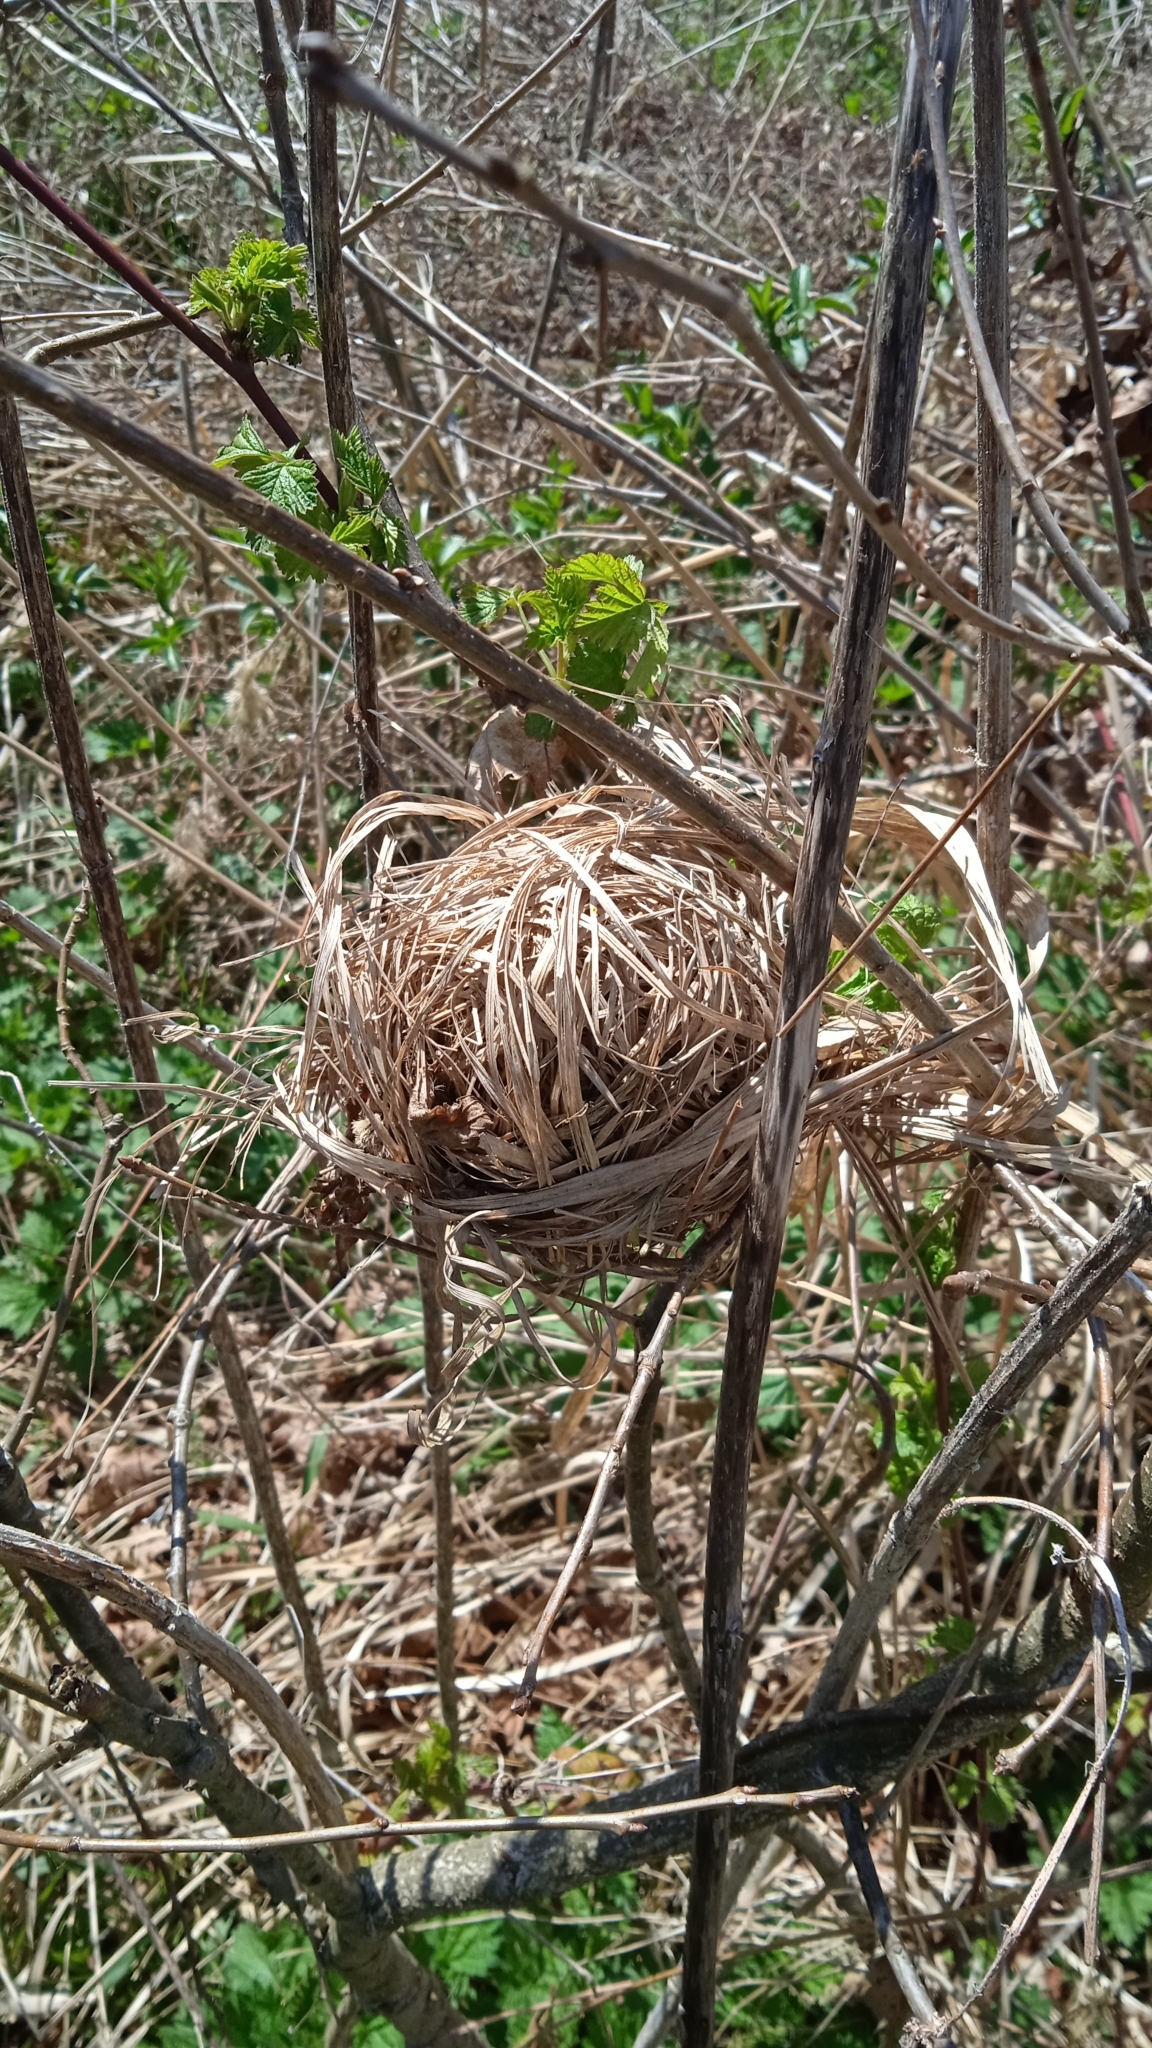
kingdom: Animalia
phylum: Chordata
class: Mammalia
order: Rodentia
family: Muridae
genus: Micromys
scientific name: Micromys minutus
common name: Harvest mouse
